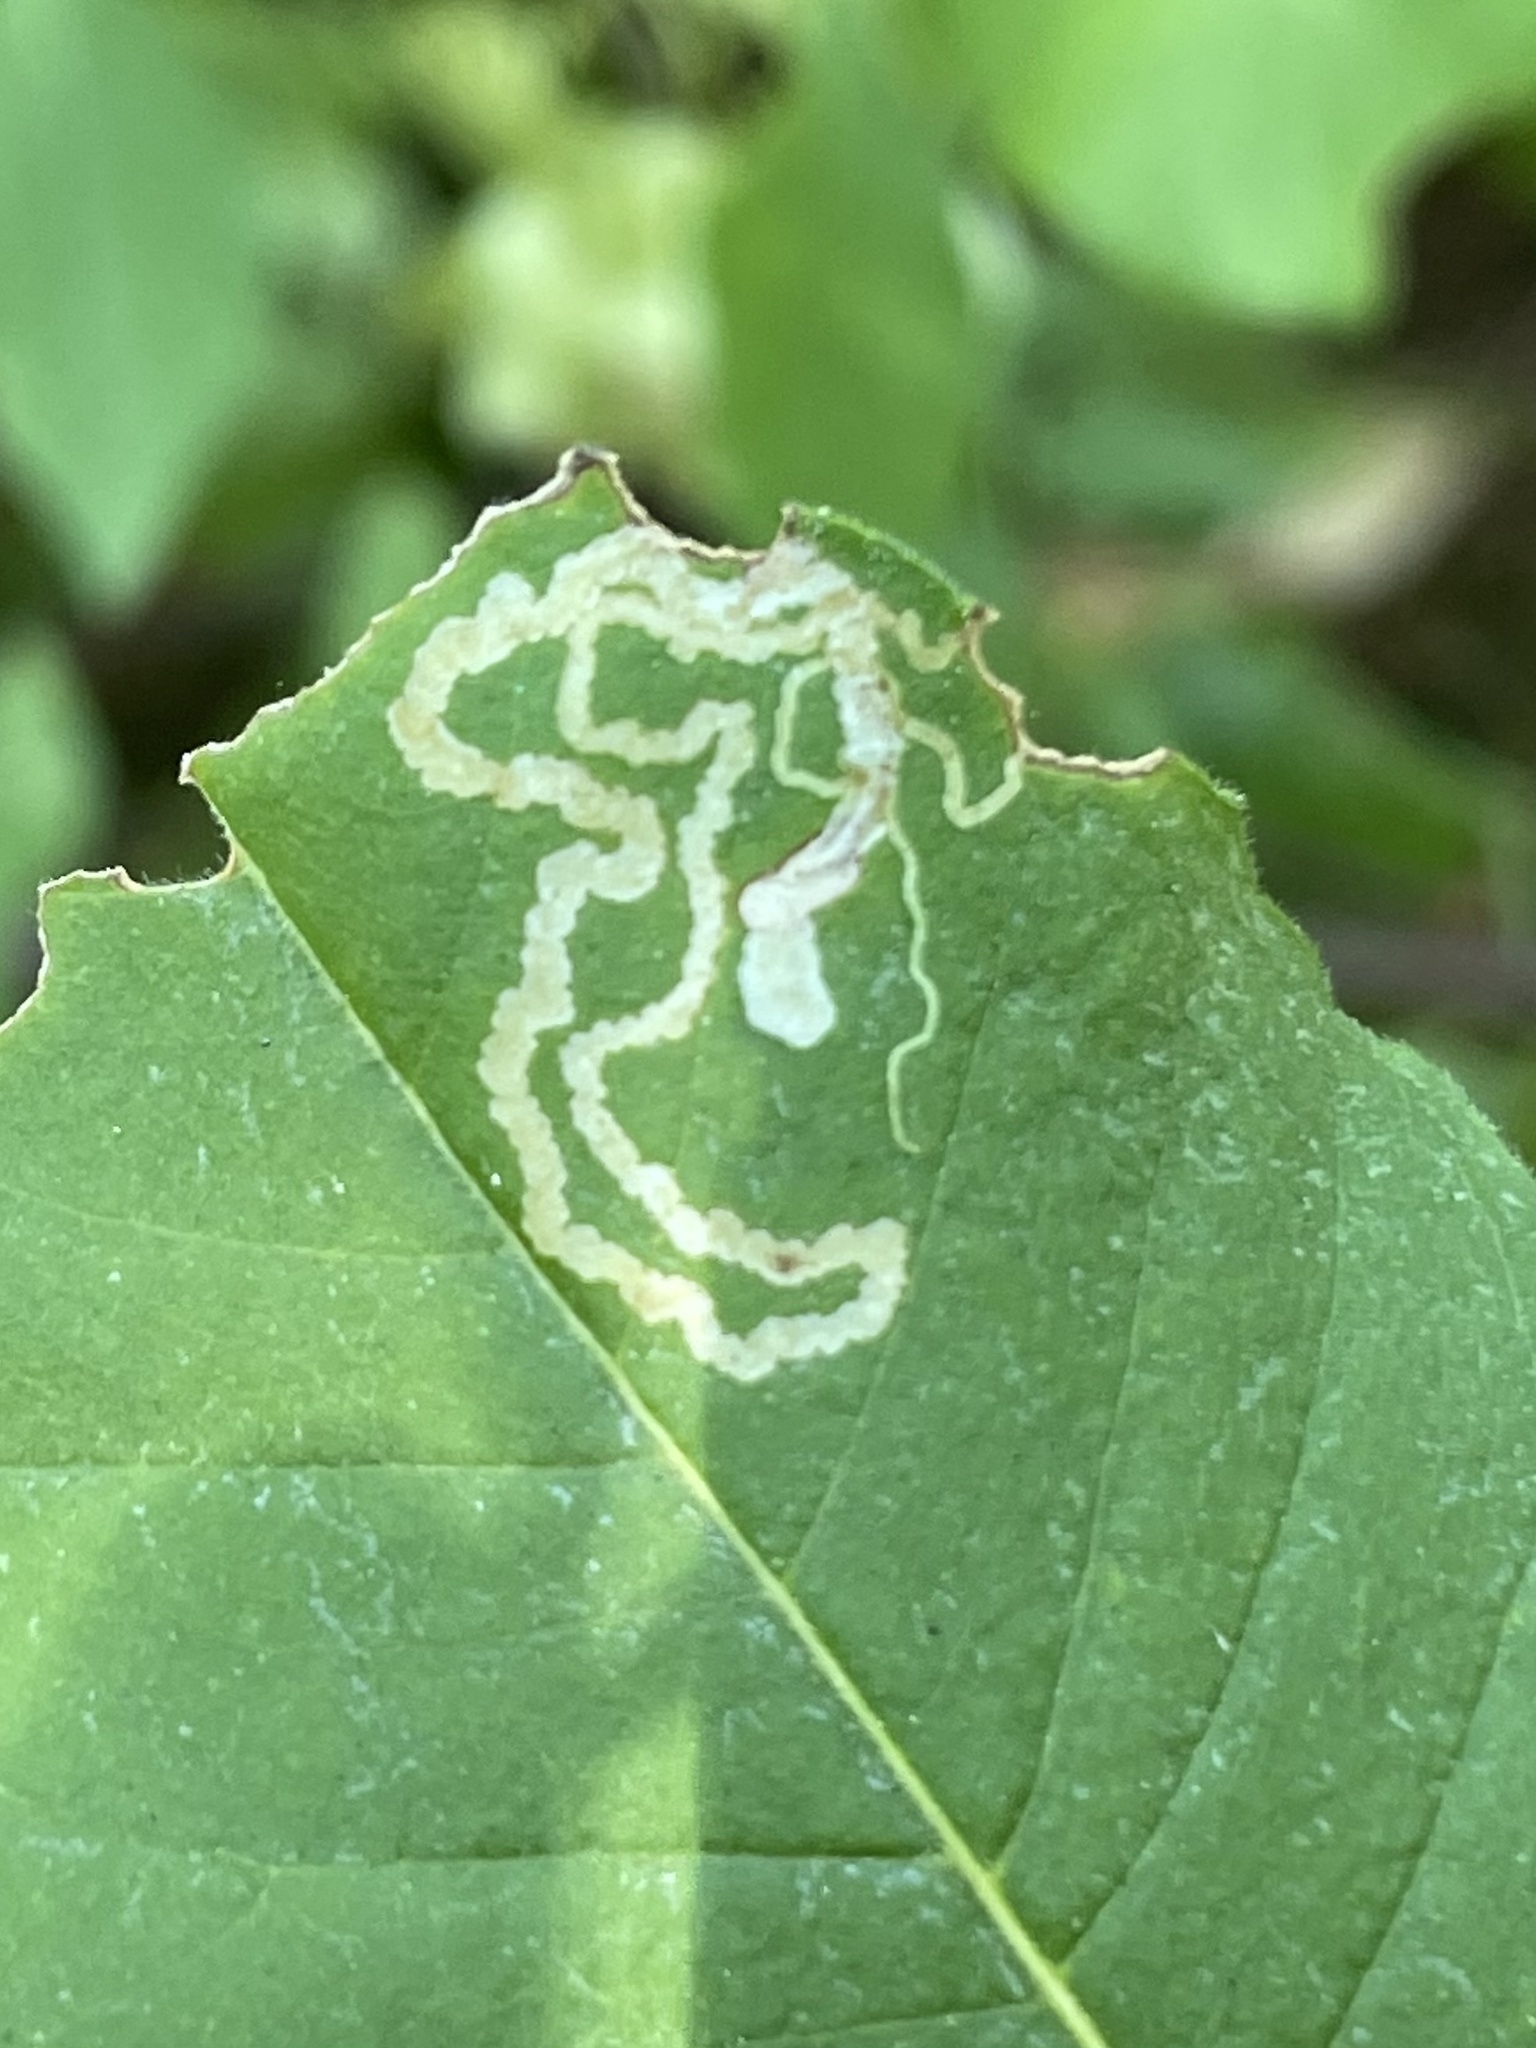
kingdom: Animalia
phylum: Arthropoda
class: Insecta
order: Lepidoptera
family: Nepticulidae
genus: Fomoria
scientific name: Fomoria pteliaeella
